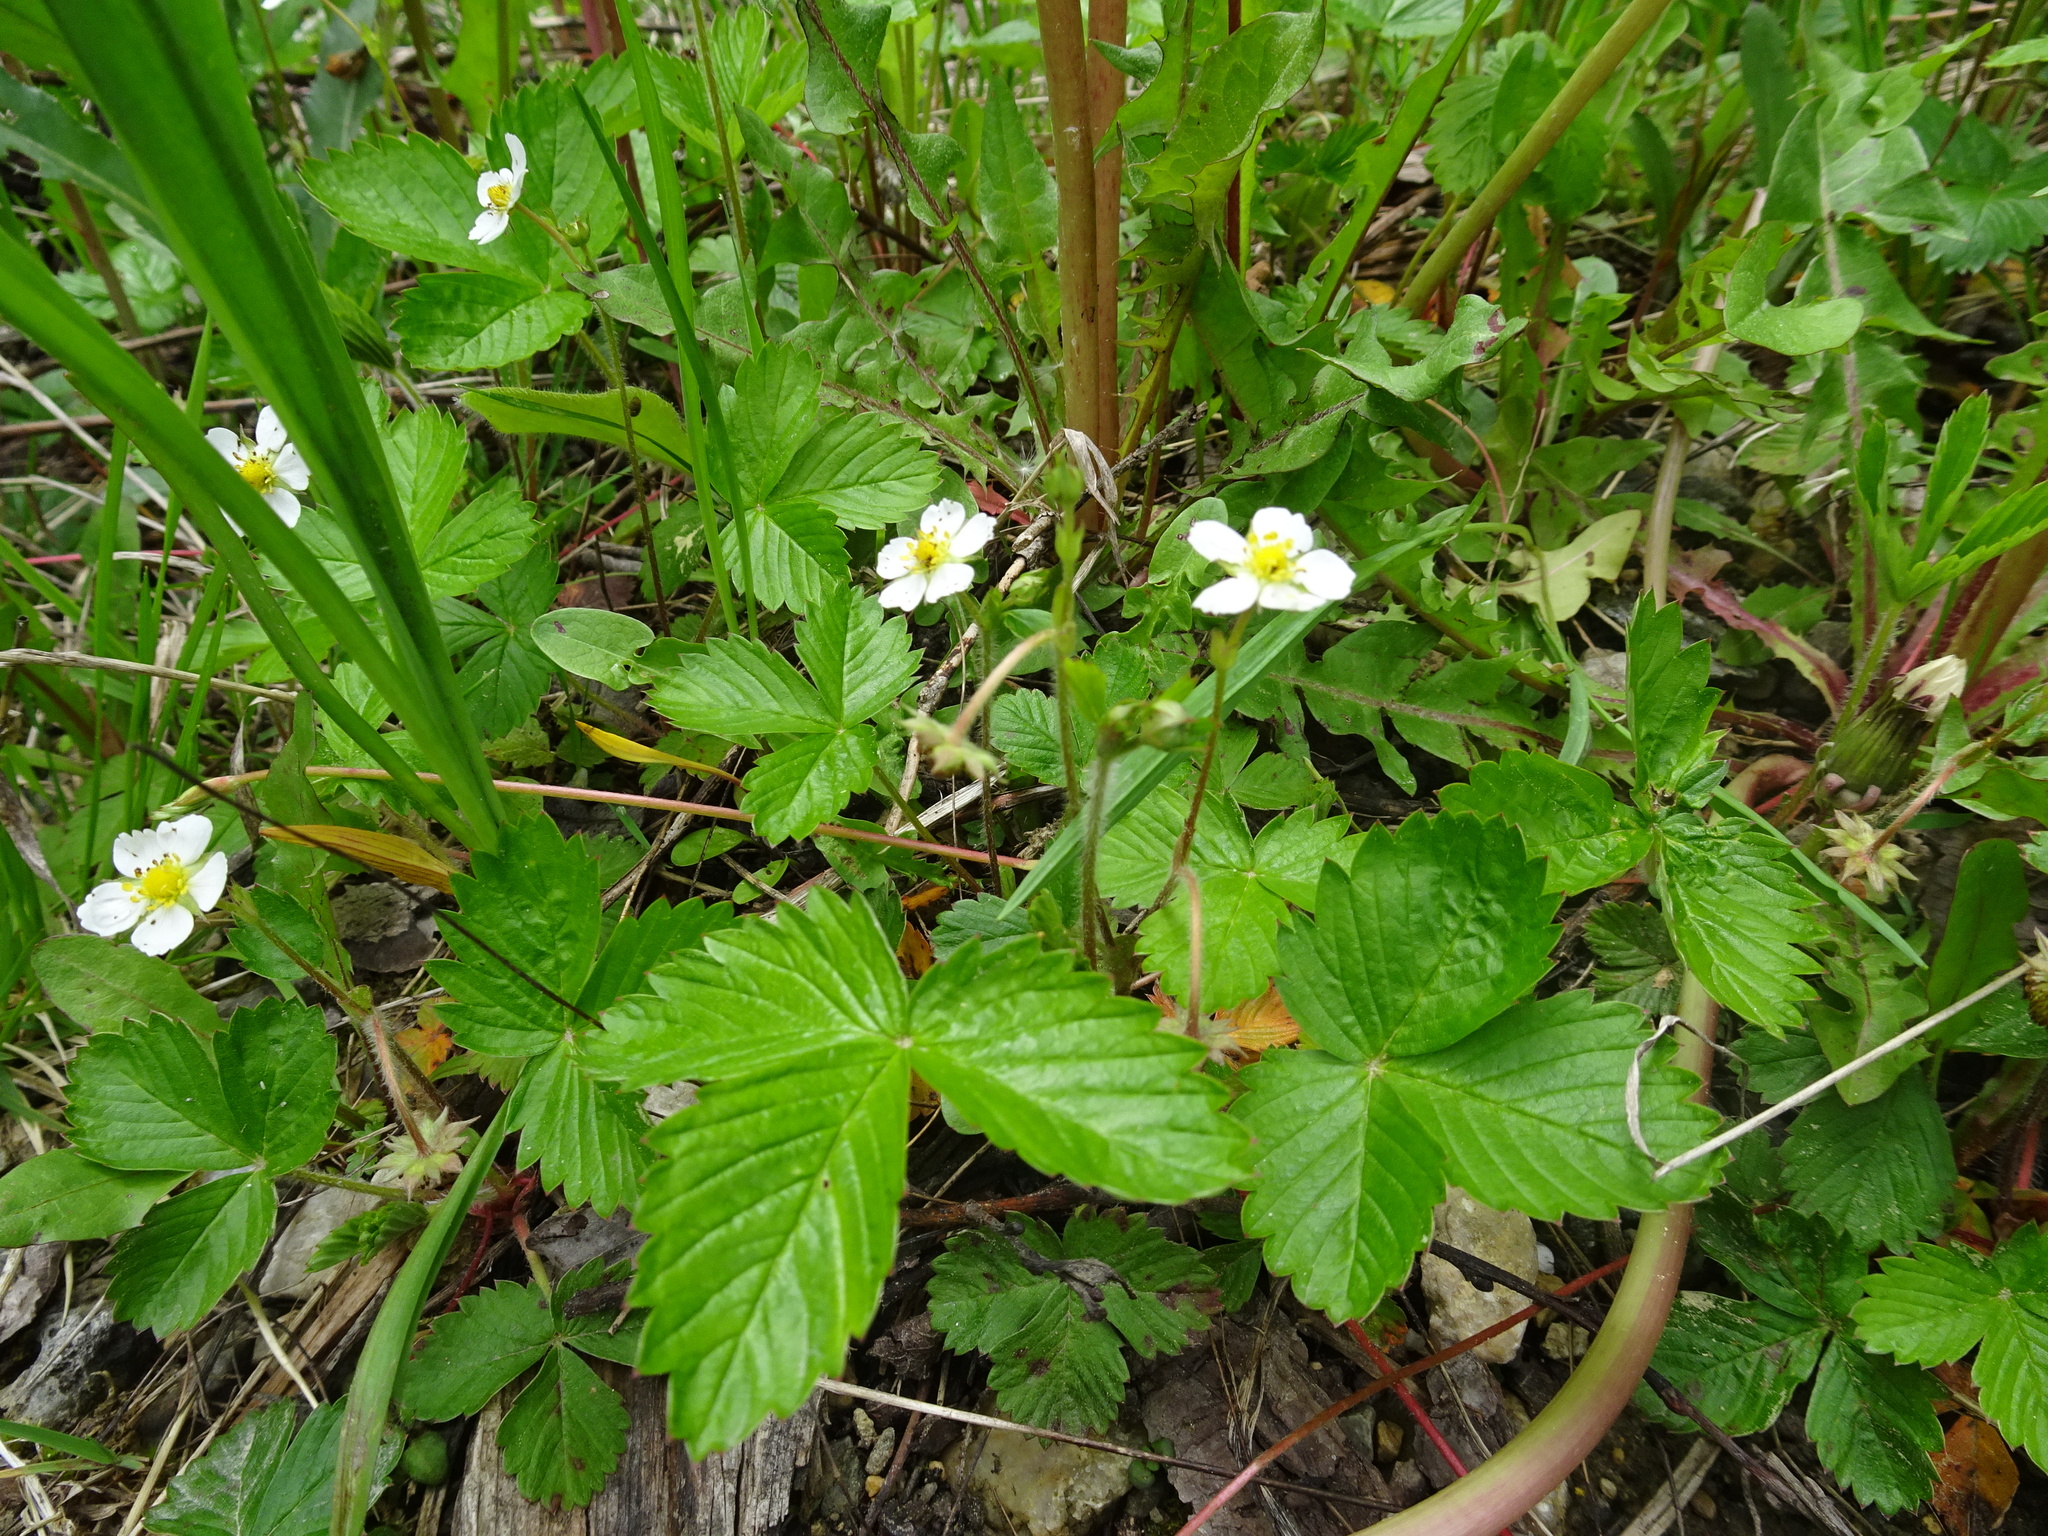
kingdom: Plantae
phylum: Tracheophyta
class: Magnoliopsida
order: Rosales
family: Rosaceae
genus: Fragaria
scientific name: Fragaria vesca
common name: Wild strawberry
